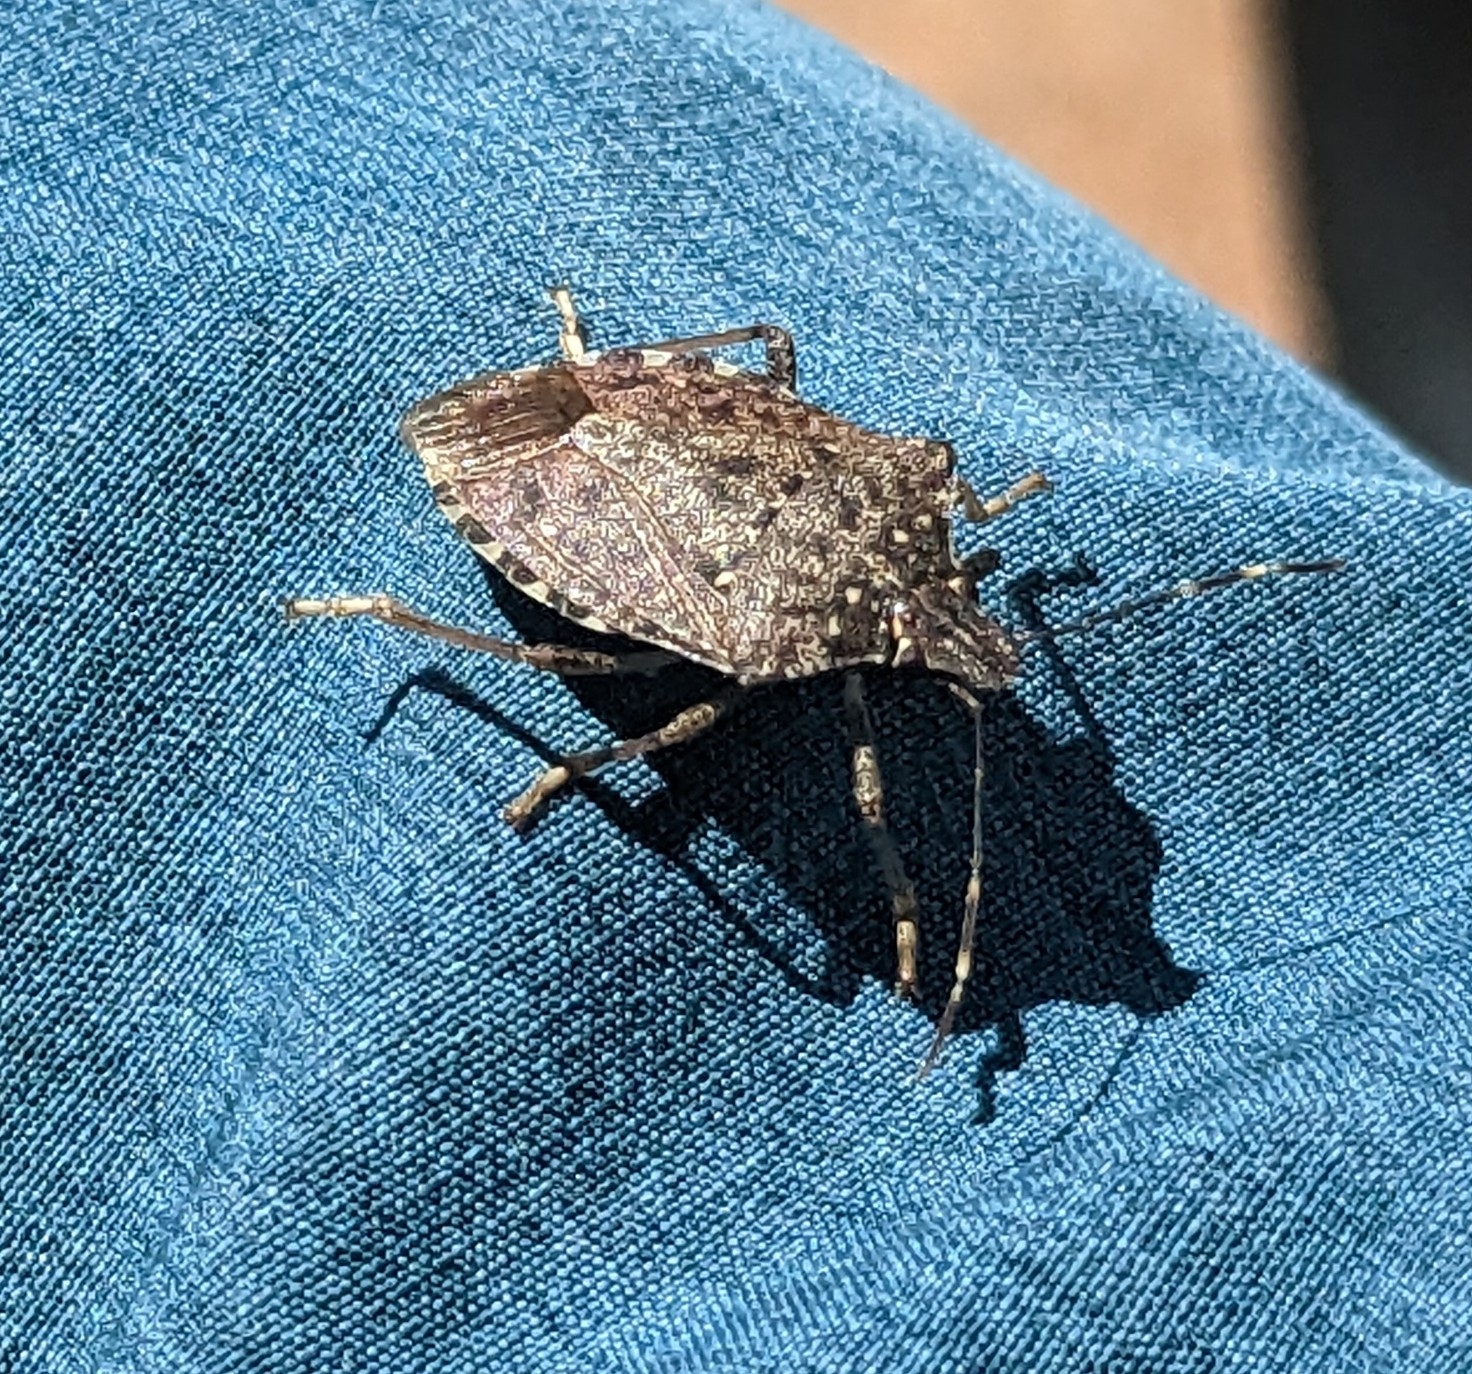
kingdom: Animalia
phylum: Arthropoda
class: Insecta
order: Hemiptera
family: Pentatomidae
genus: Halyomorpha
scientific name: Halyomorpha halys
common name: Brown marmorated stink bug
